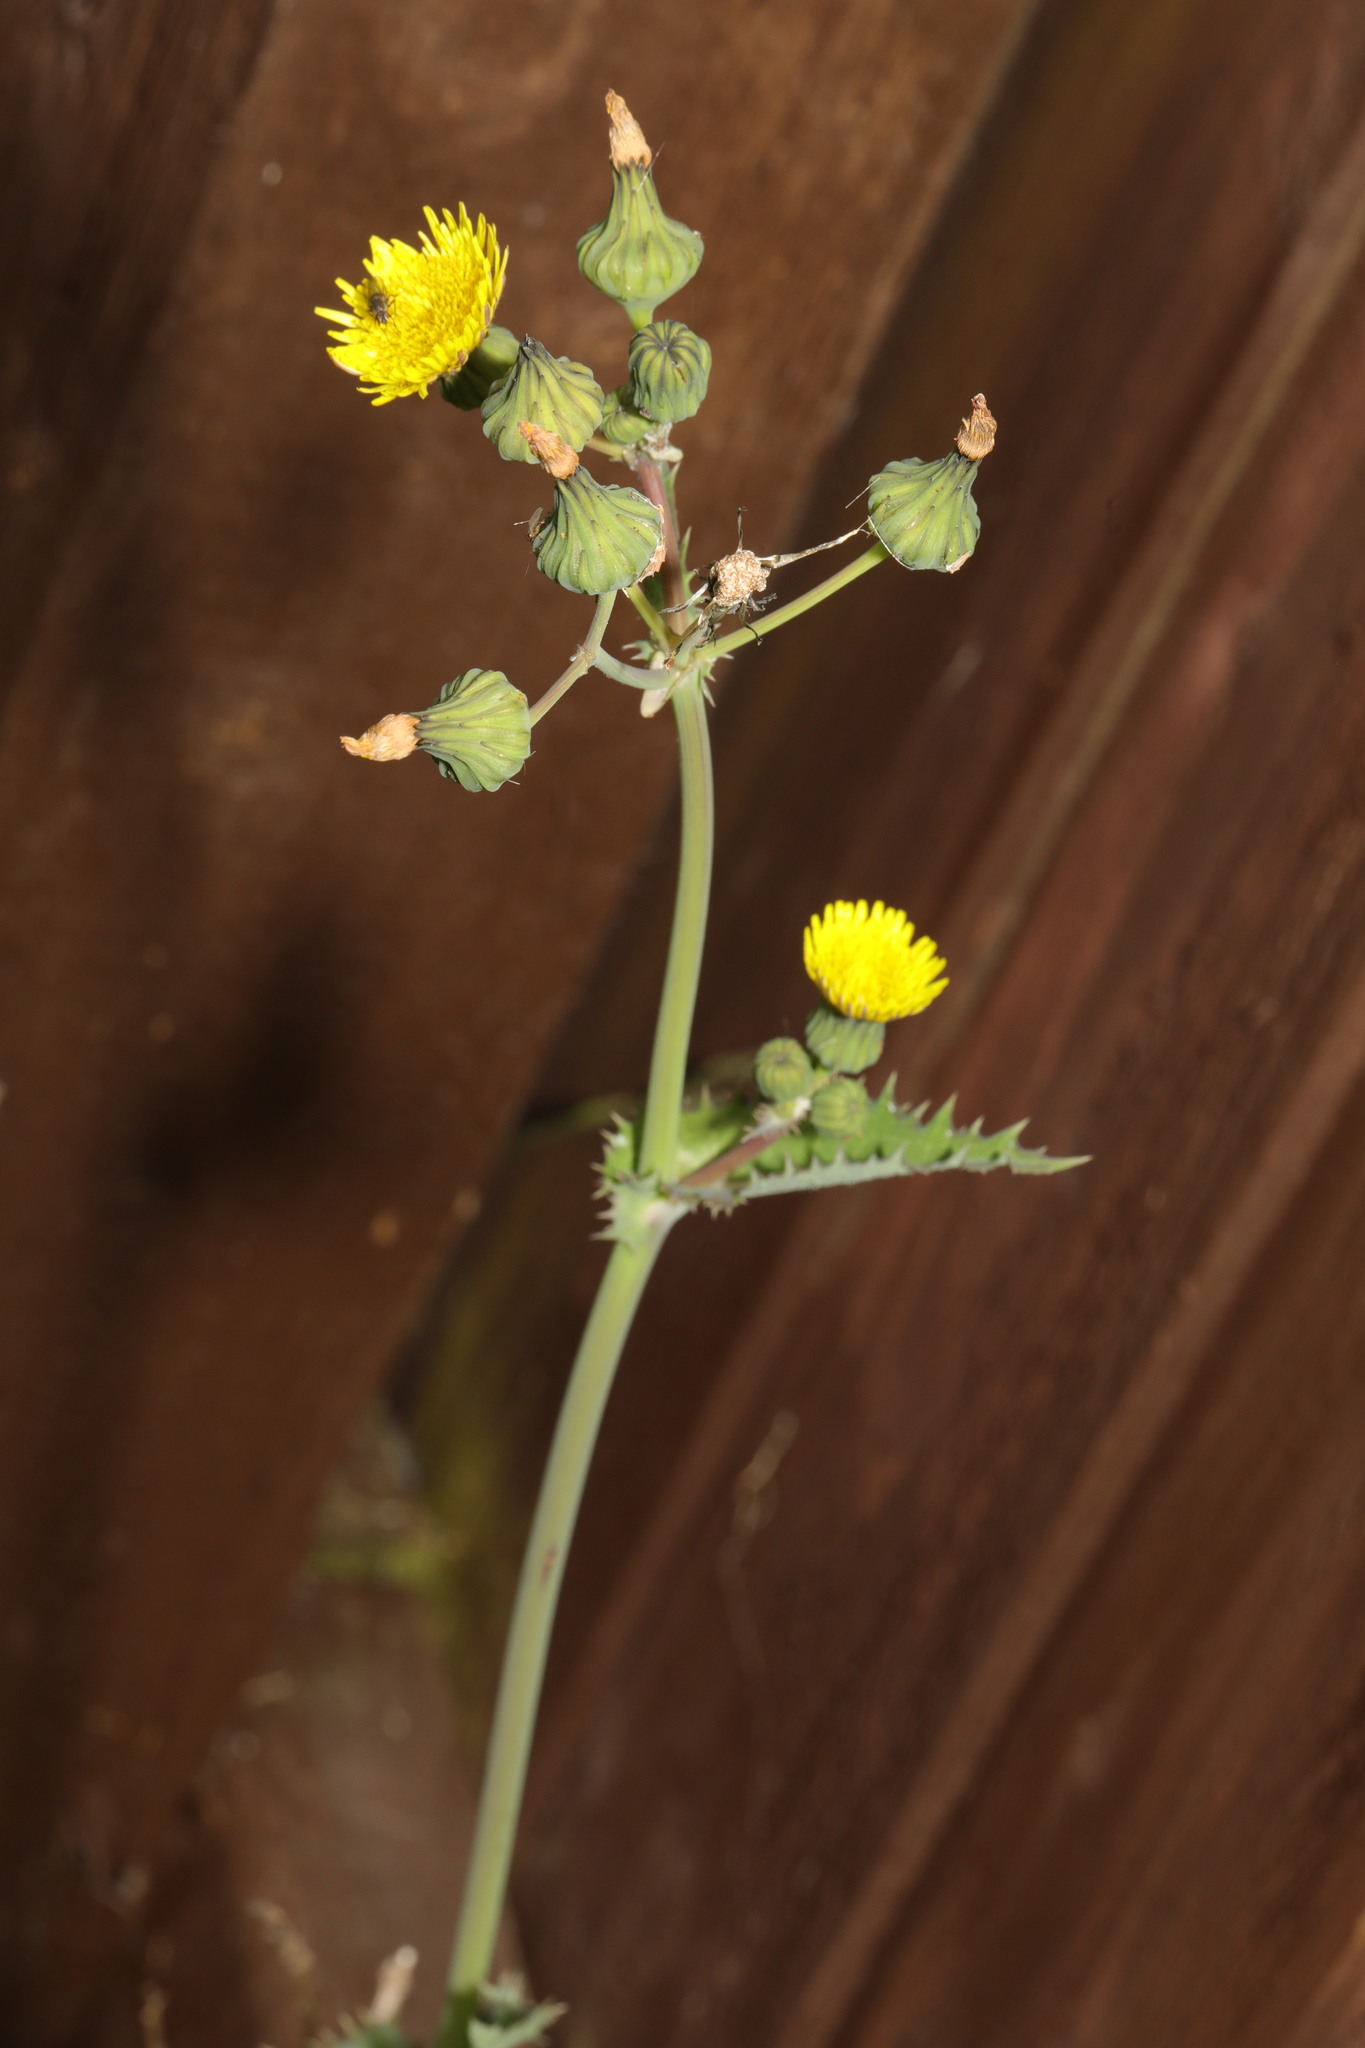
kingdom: Plantae
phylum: Tracheophyta
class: Magnoliopsida
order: Asterales
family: Asteraceae
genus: Sonchus
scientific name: Sonchus asper
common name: Prickly sow-thistle
